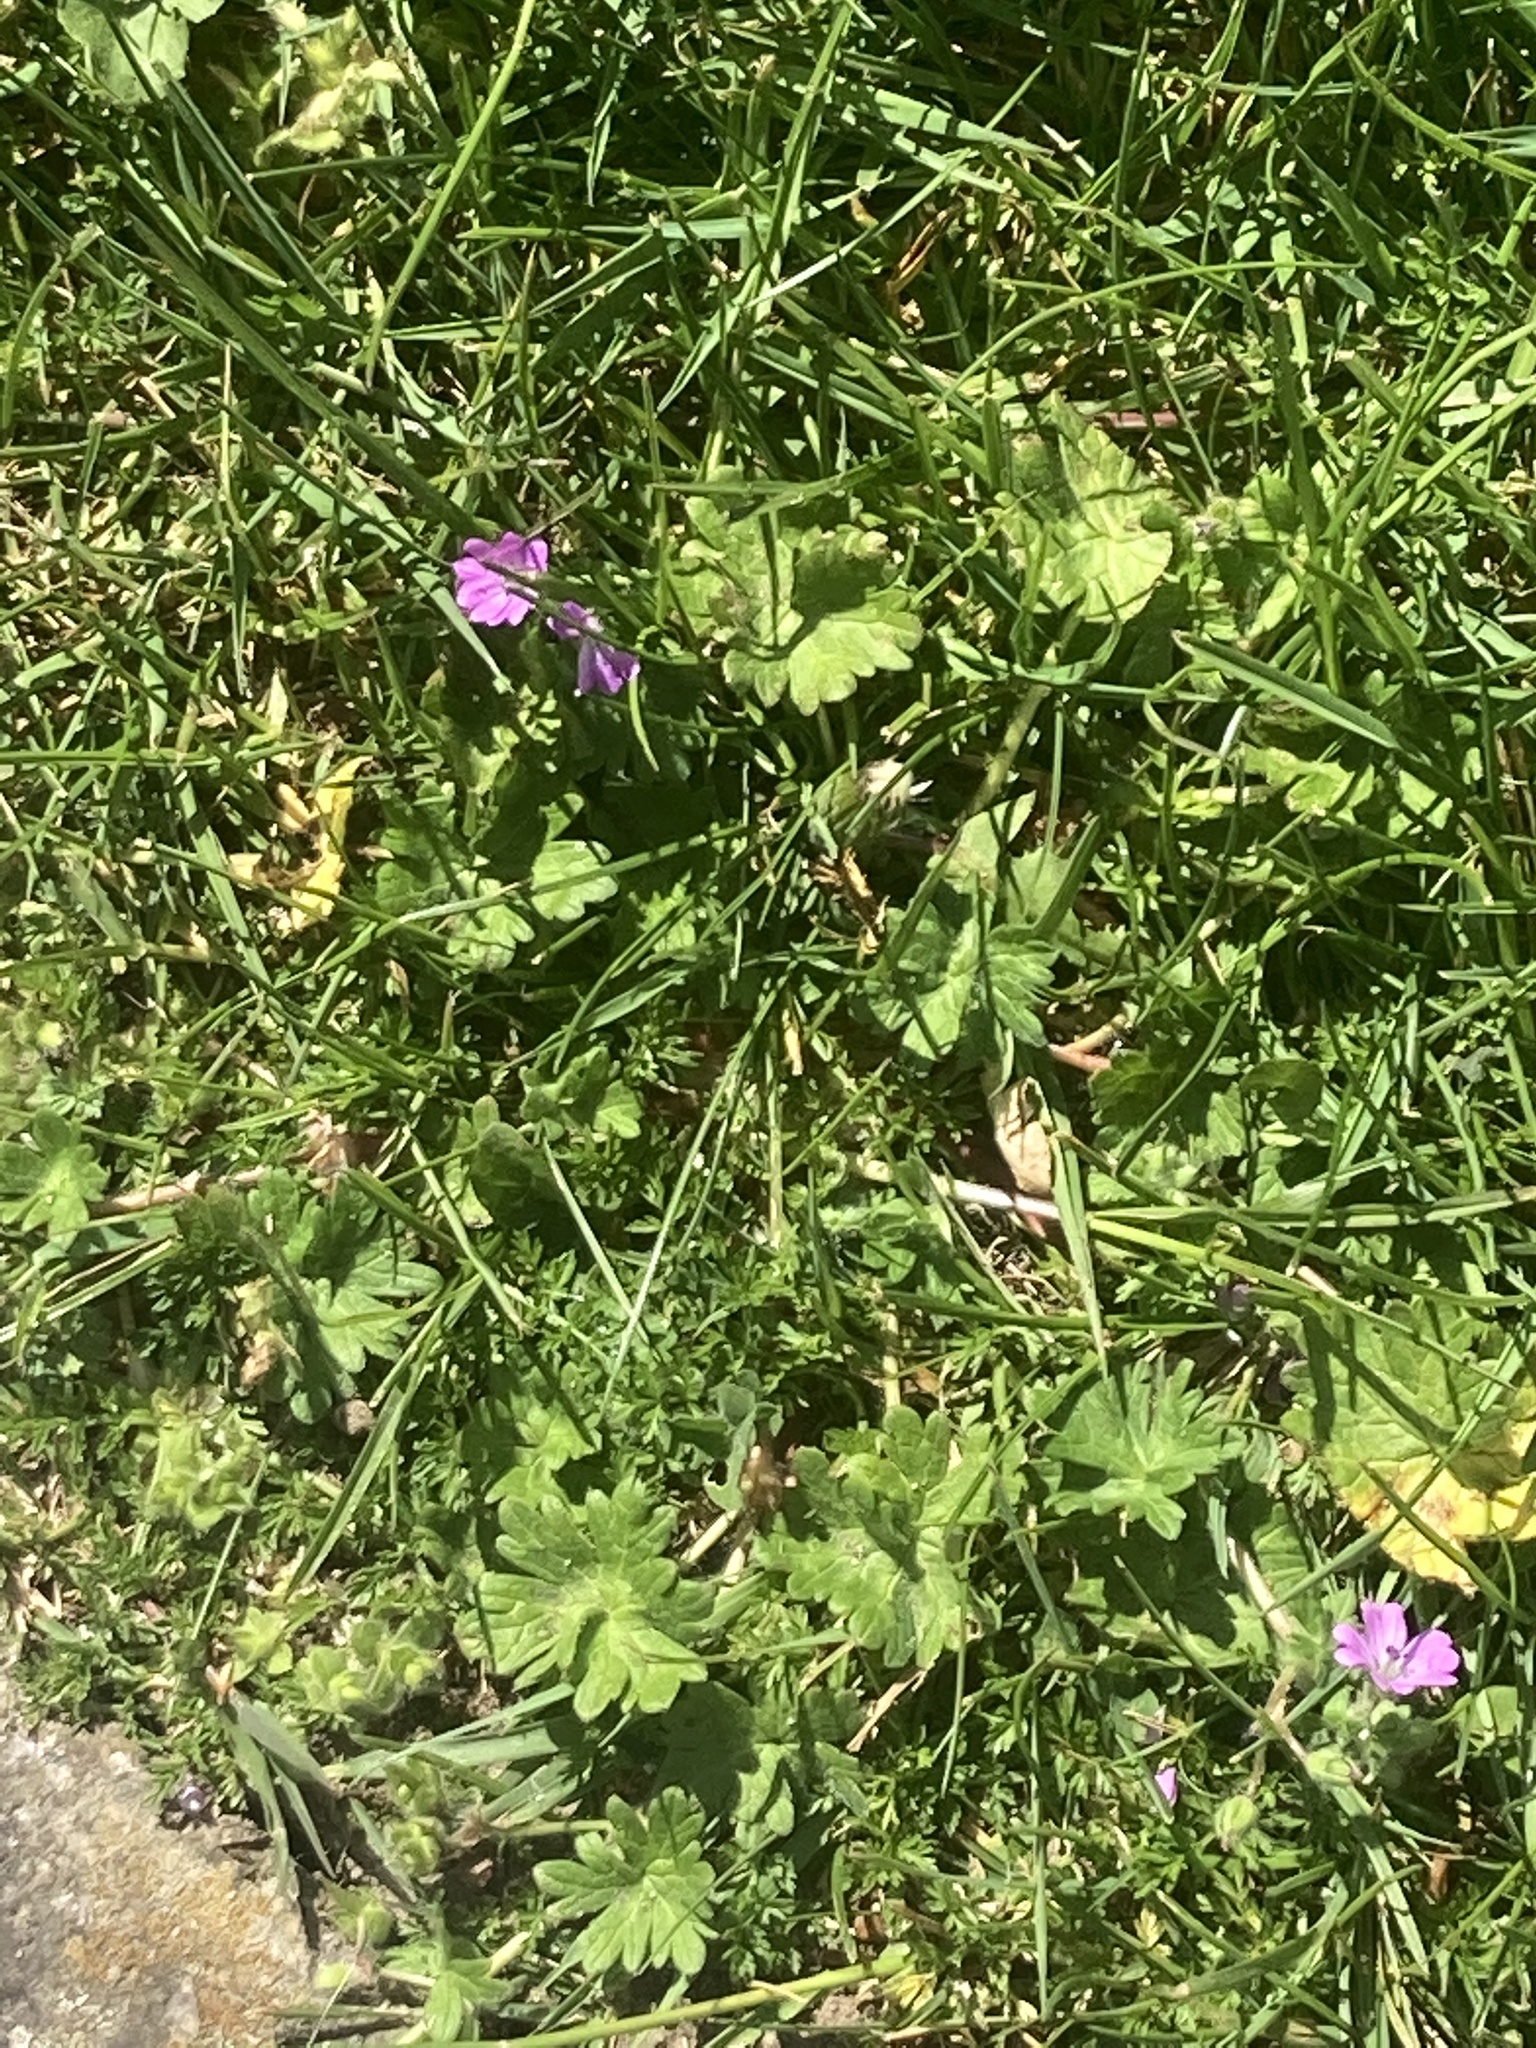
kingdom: Plantae
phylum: Tracheophyta
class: Magnoliopsida
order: Geraniales
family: Geraniaceae
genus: Geranium
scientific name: Geranium molle
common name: Dove's-foot crane's-bill
